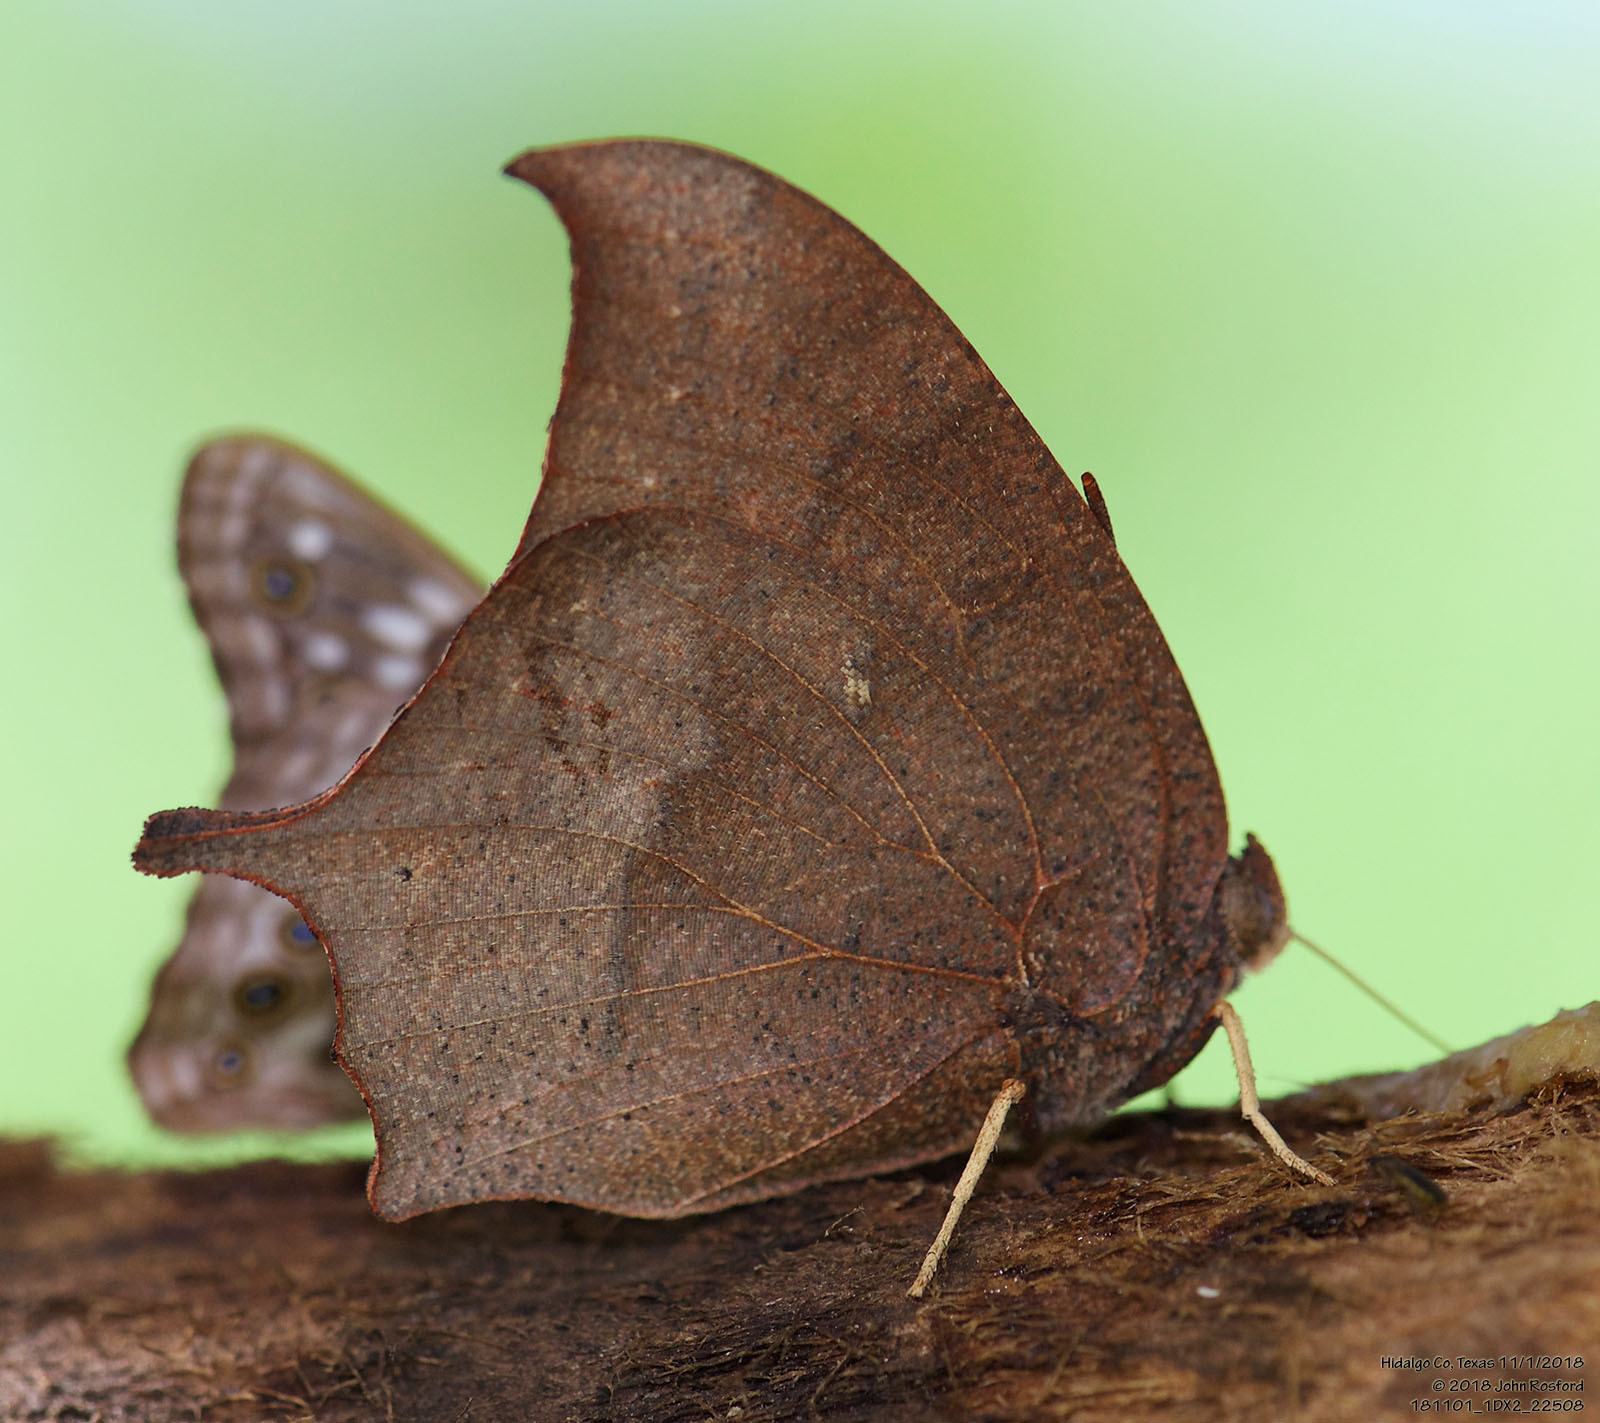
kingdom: Animalia
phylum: Arthropoda
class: Insecta
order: Lepidoptera
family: Nymphalidae
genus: Anaea
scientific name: Anaea andria
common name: Goatweed leafwing
